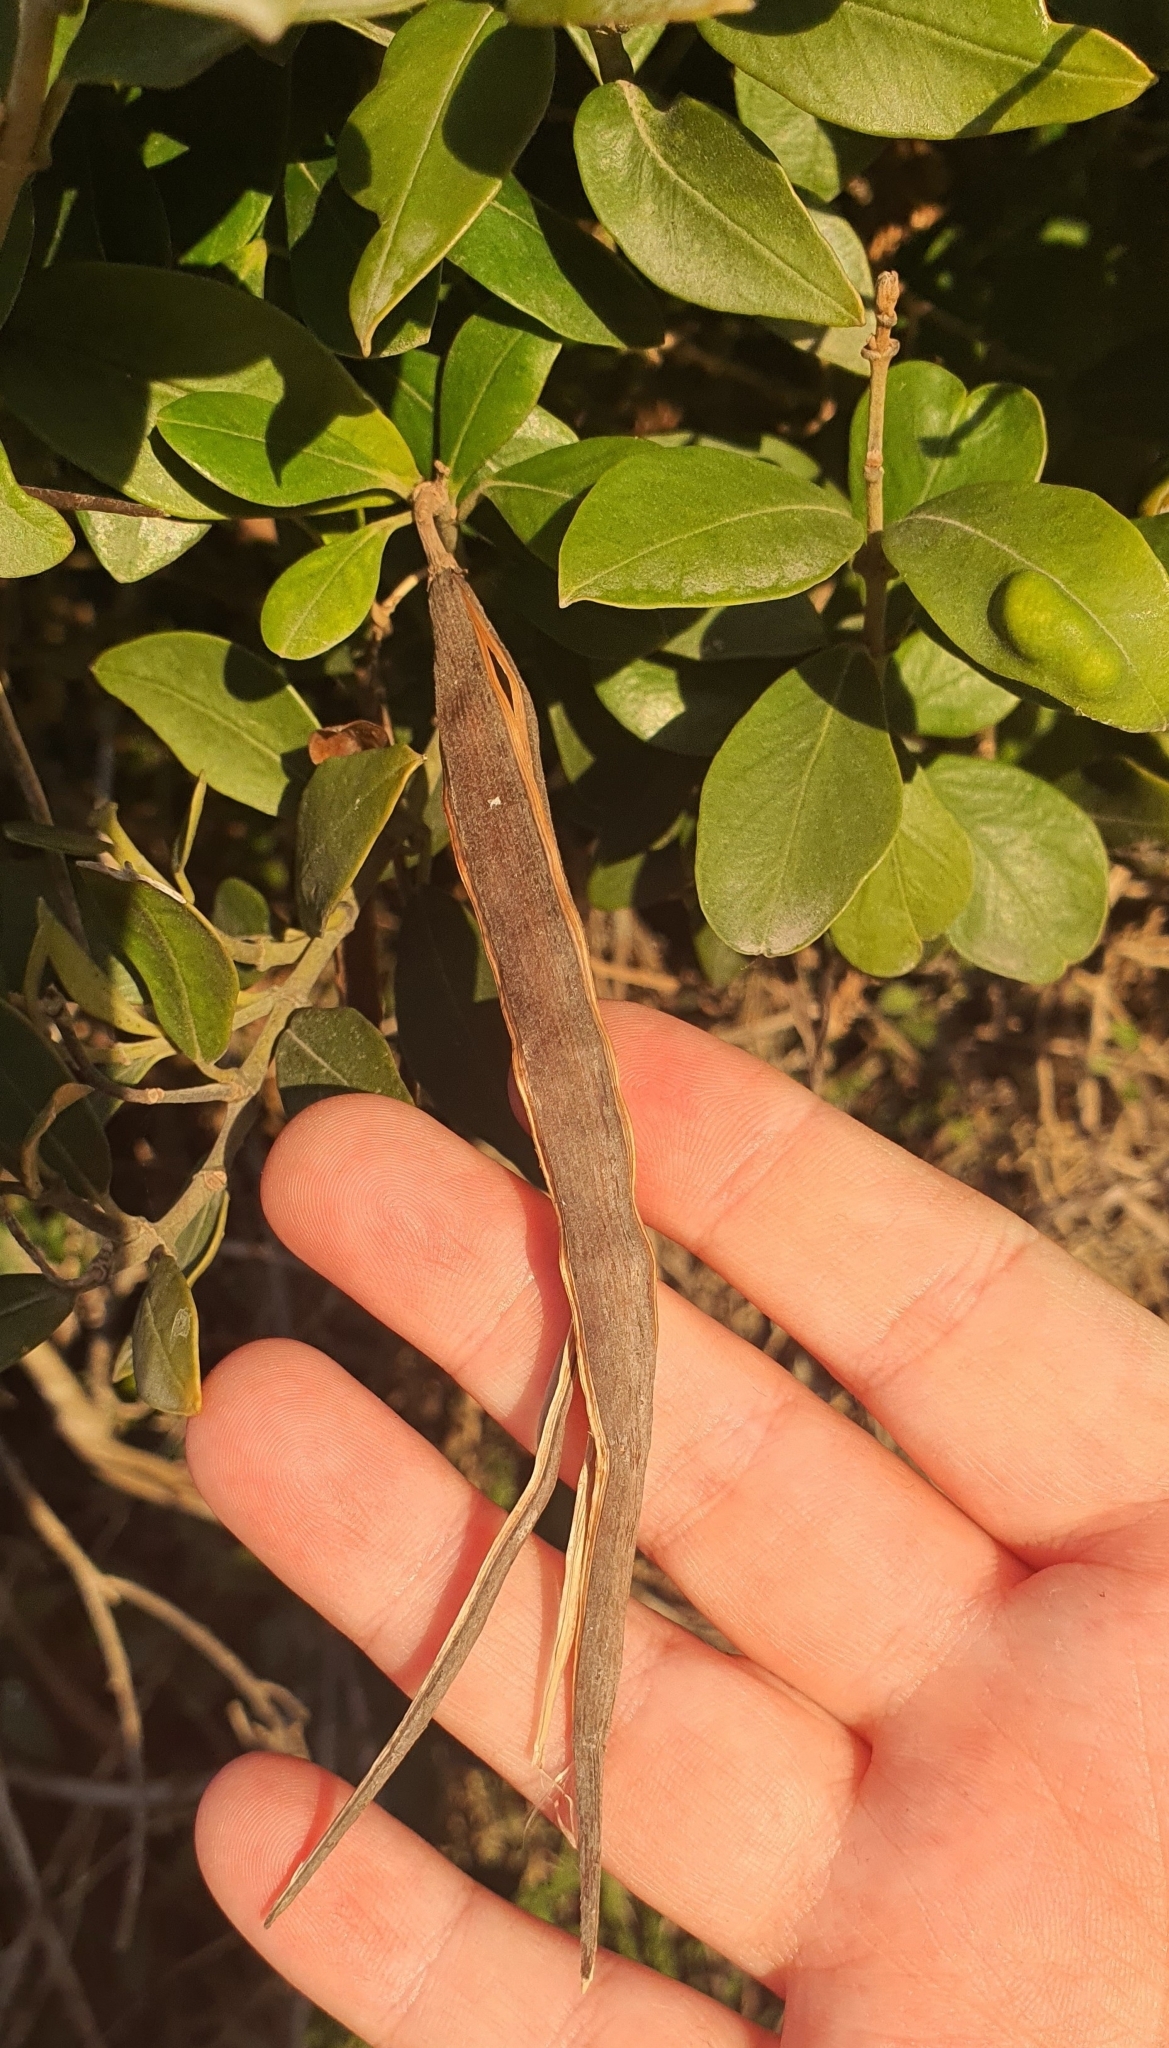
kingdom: Plantae
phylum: Tracheophyta
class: Magnoliopsida
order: Gentianales
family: Apocynaceae
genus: Parsonsia
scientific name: Parsonsia heterophylla
